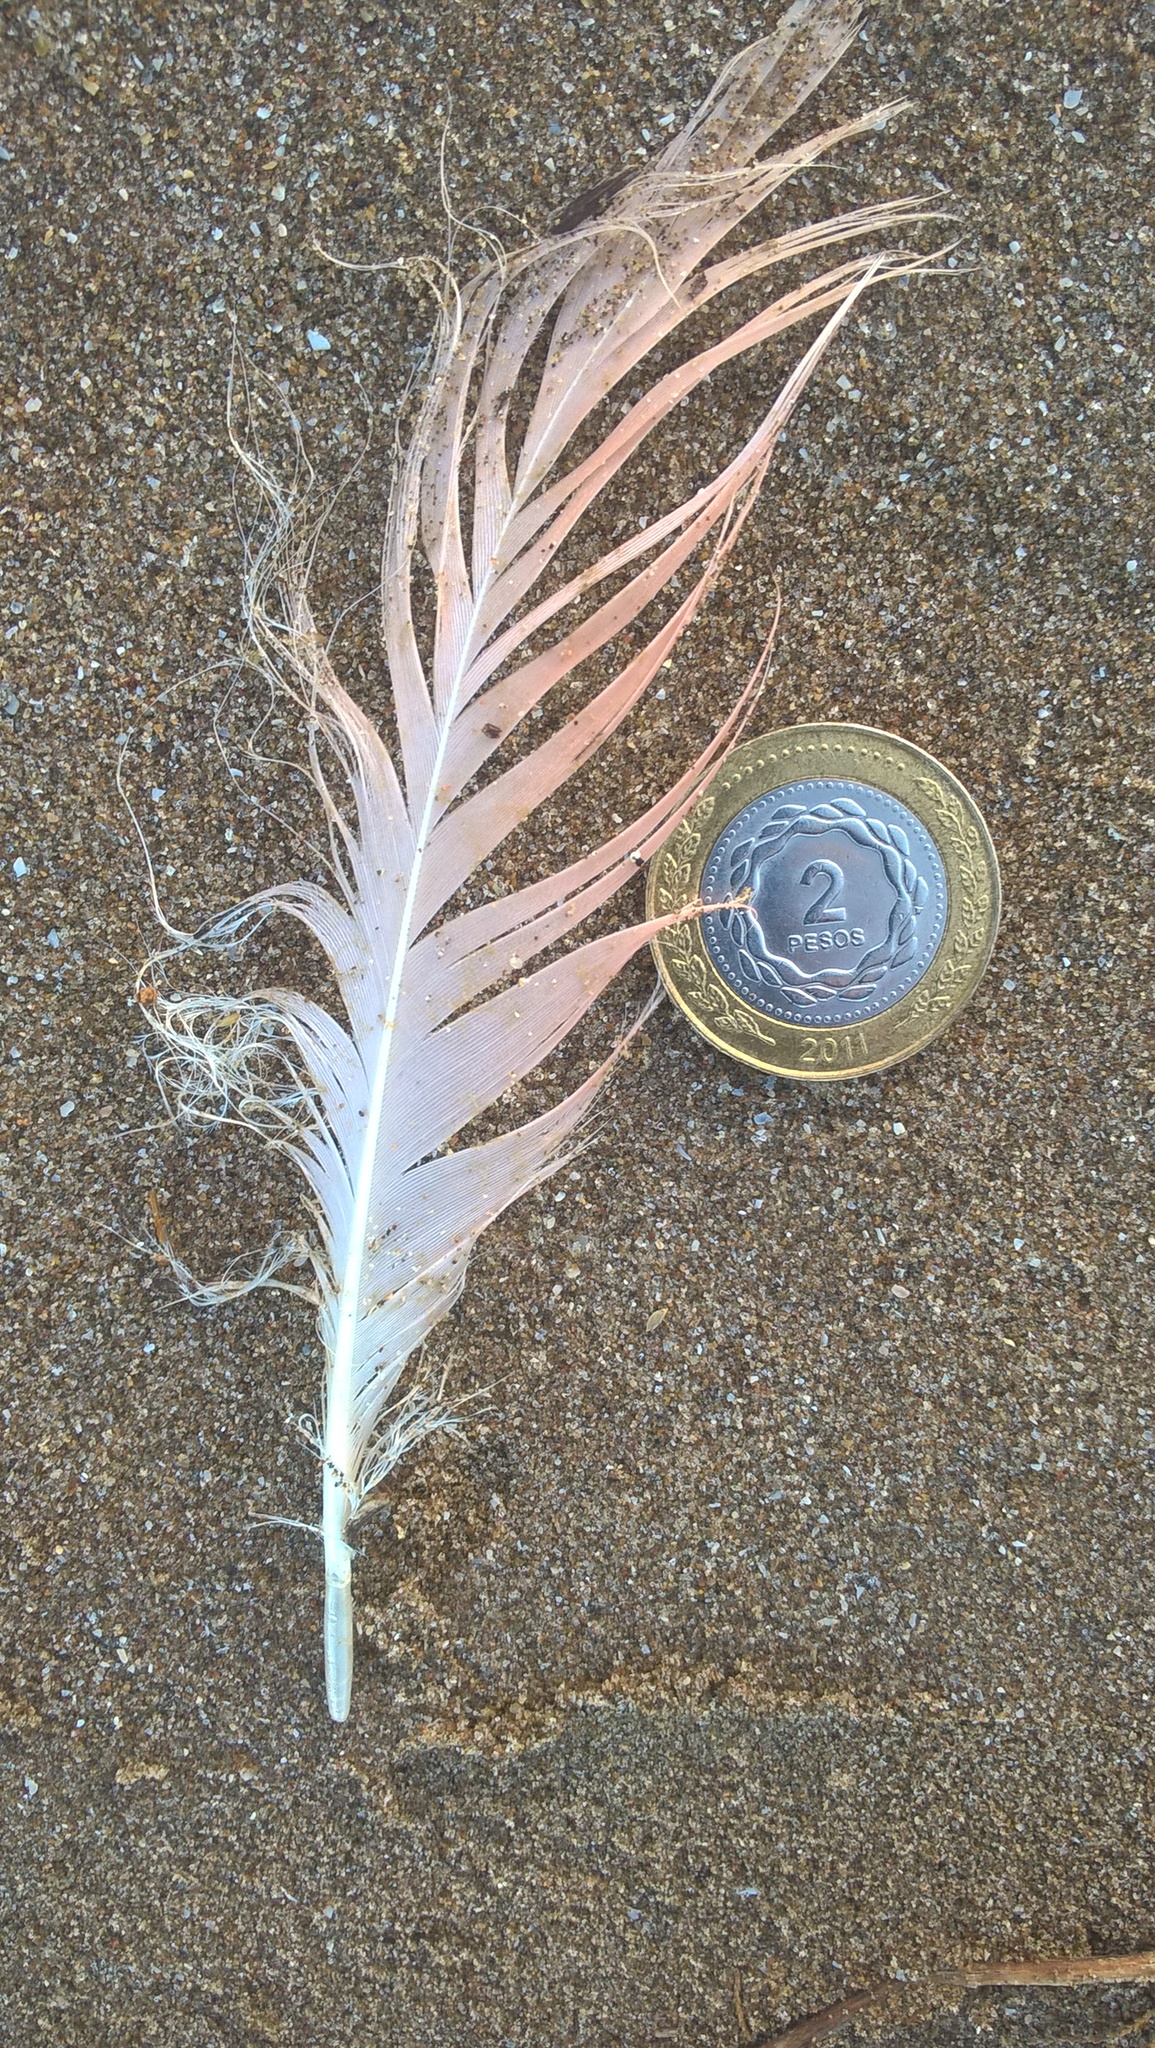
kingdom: Animalia
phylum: Chordata
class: Aves
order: Phoenicopteriformes
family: Phoenicopteridae
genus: Phoenicopterus
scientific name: Phoenicopterus chilensis
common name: Chilean flamingo
